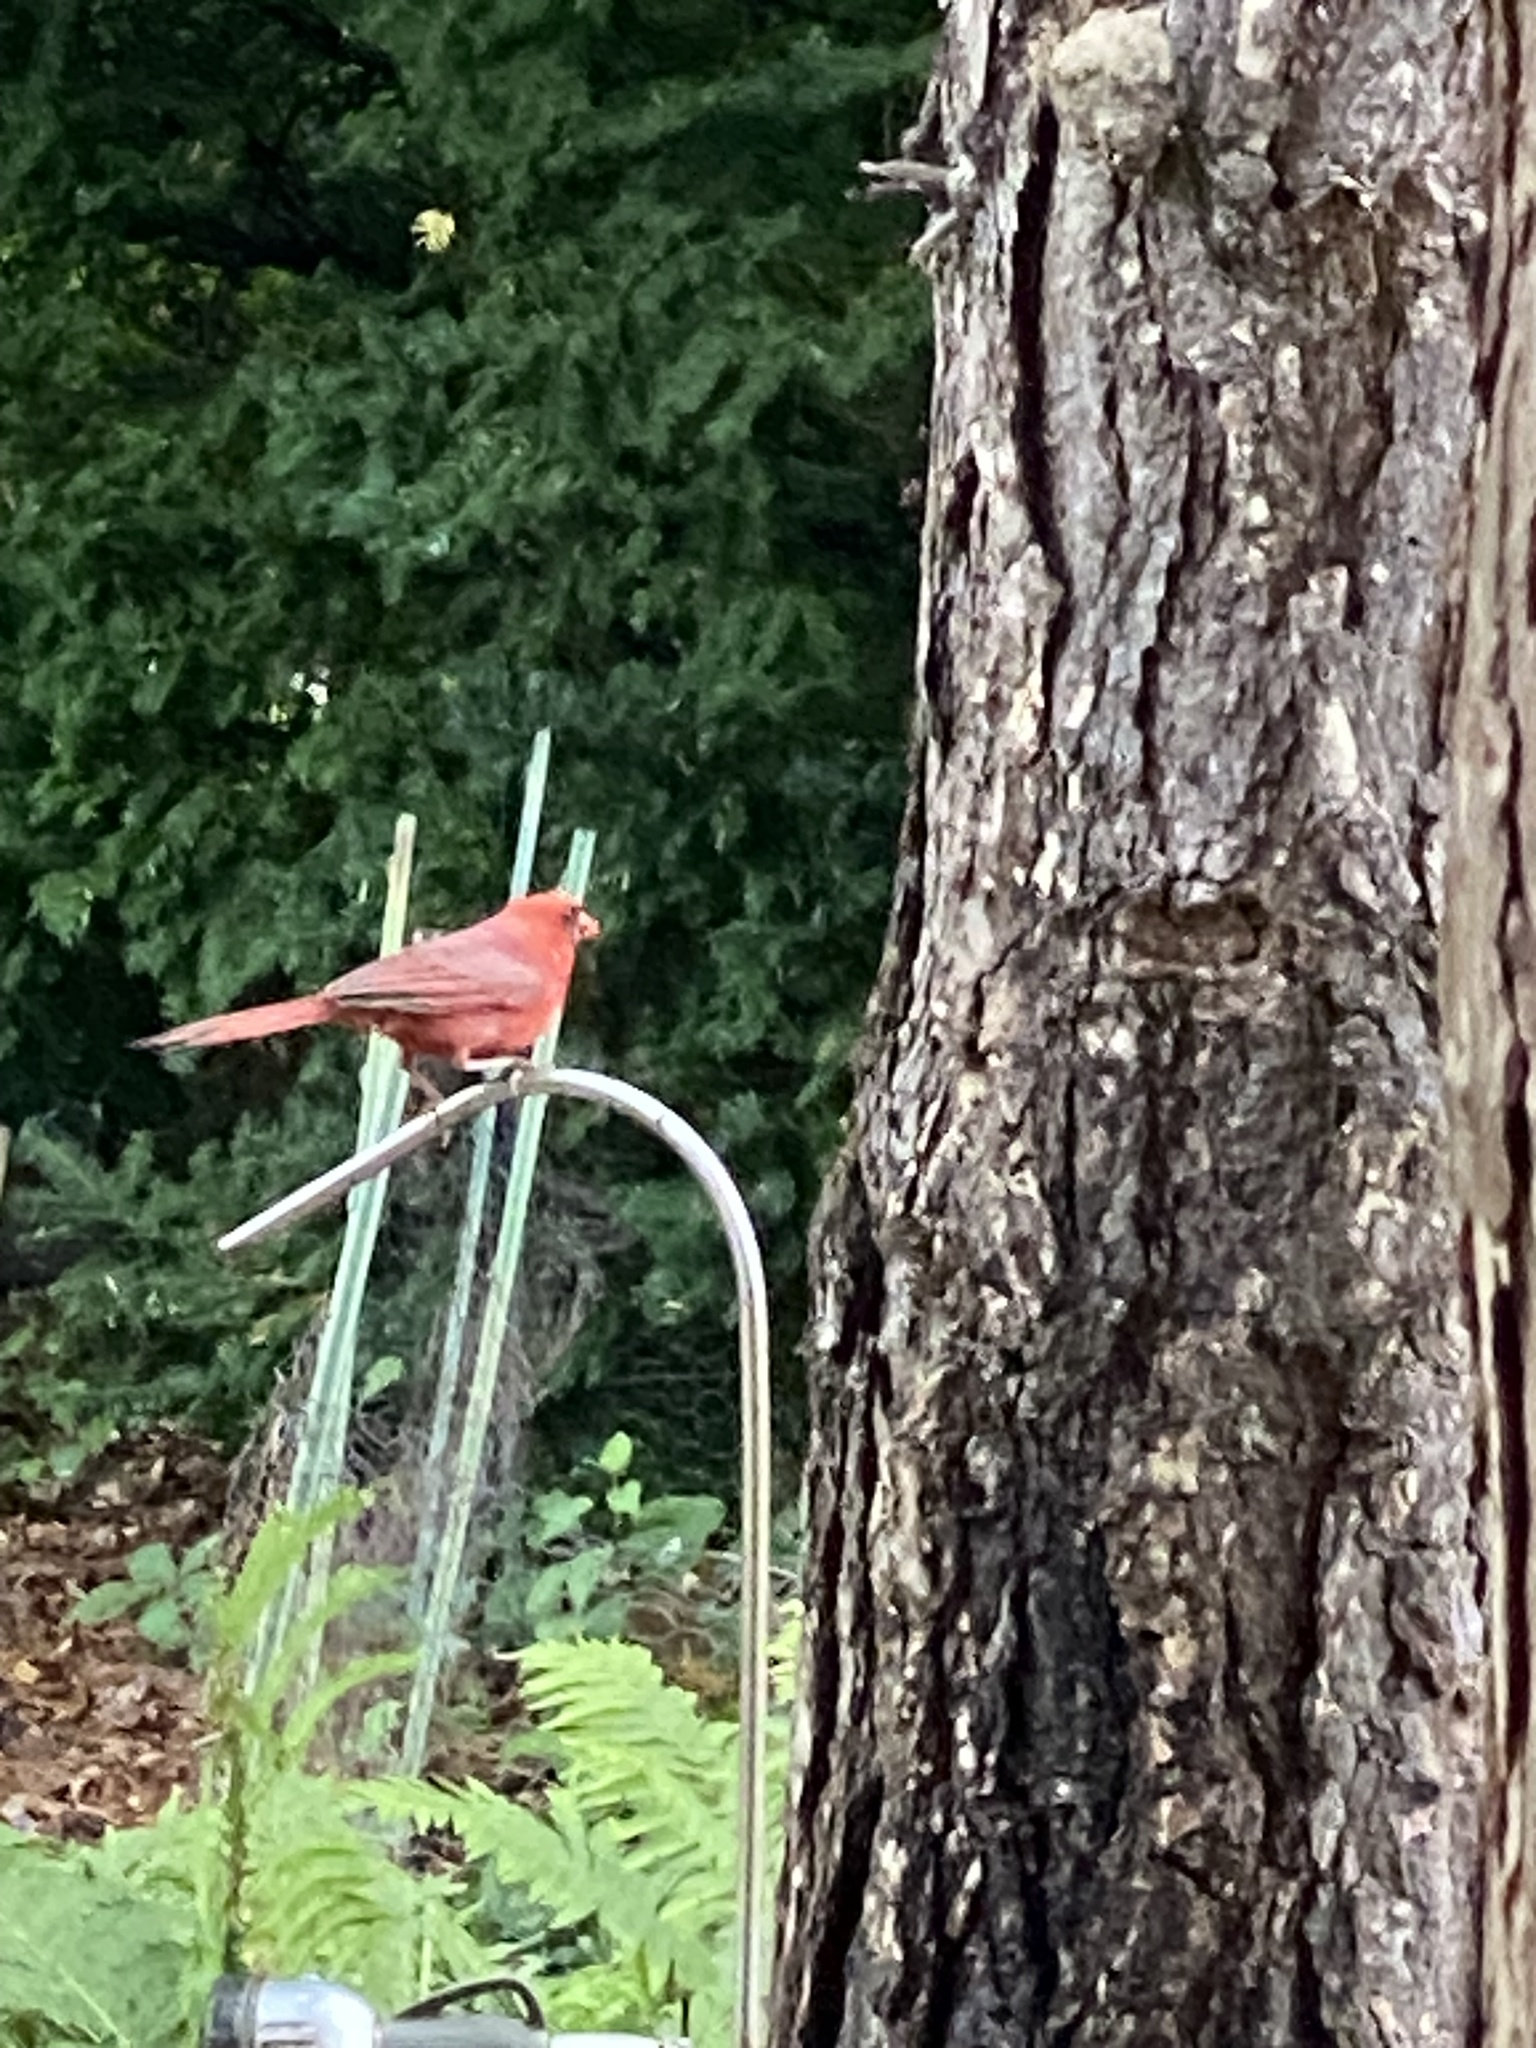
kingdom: Animalia
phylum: Chordata
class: Aves
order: Passeriformes
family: Cardinalidae
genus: Cardinalis
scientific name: Cardinalis cardinalis
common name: Northern cardinal
